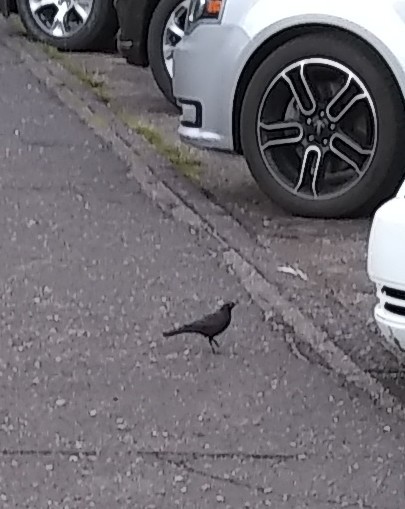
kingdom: Animalia
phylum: Chordata
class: Aves
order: Passeriformes
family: Icteridae
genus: Euphagus
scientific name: Euphagus cyanocephalus
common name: Brewer's blackbird
